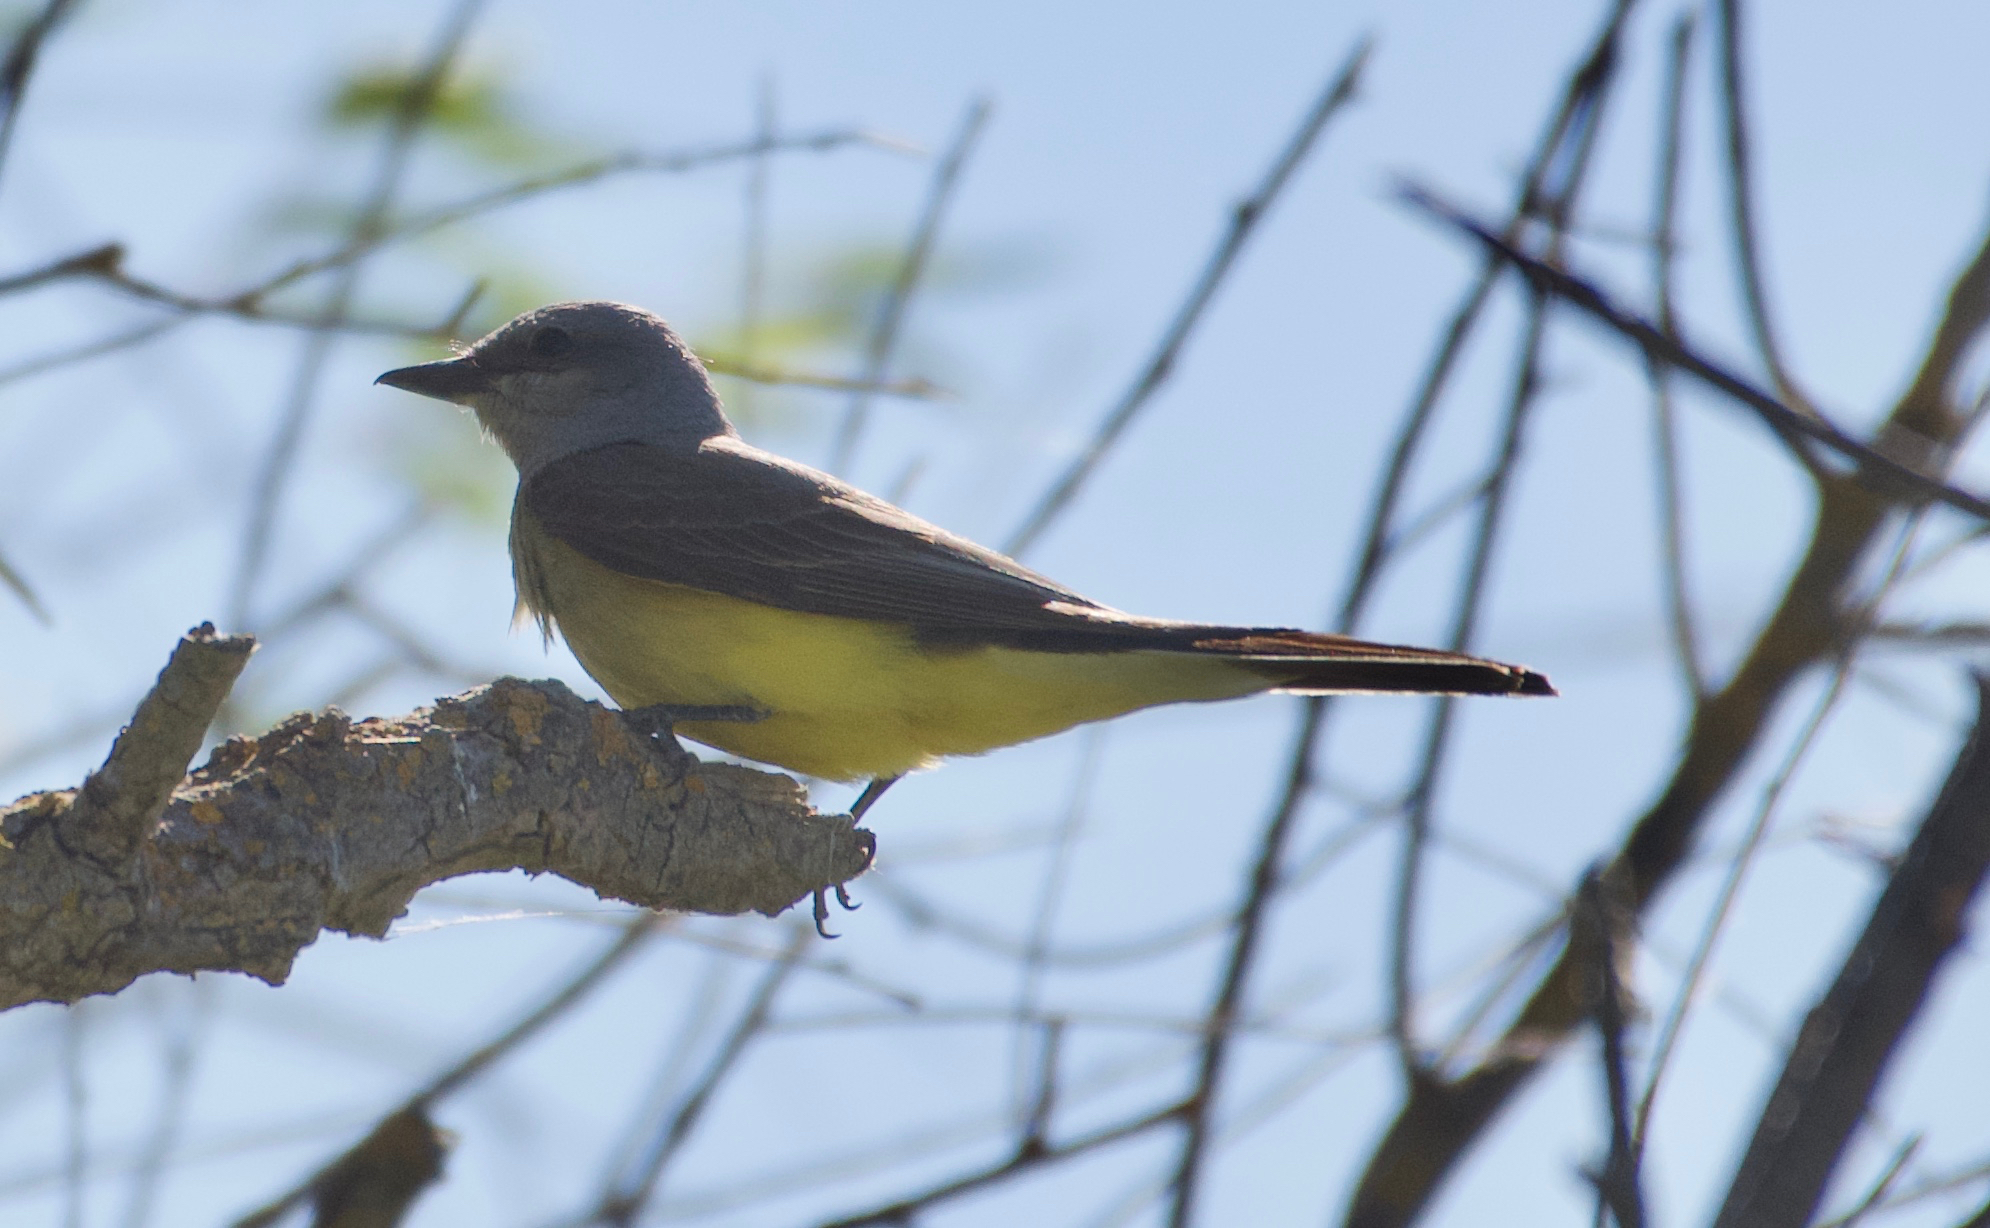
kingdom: Animalia
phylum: Chordata
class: Aves
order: Passeriformes
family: Tyrannidae
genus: Tyrannus
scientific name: Tyrannus verticalis
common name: Western kingbird
